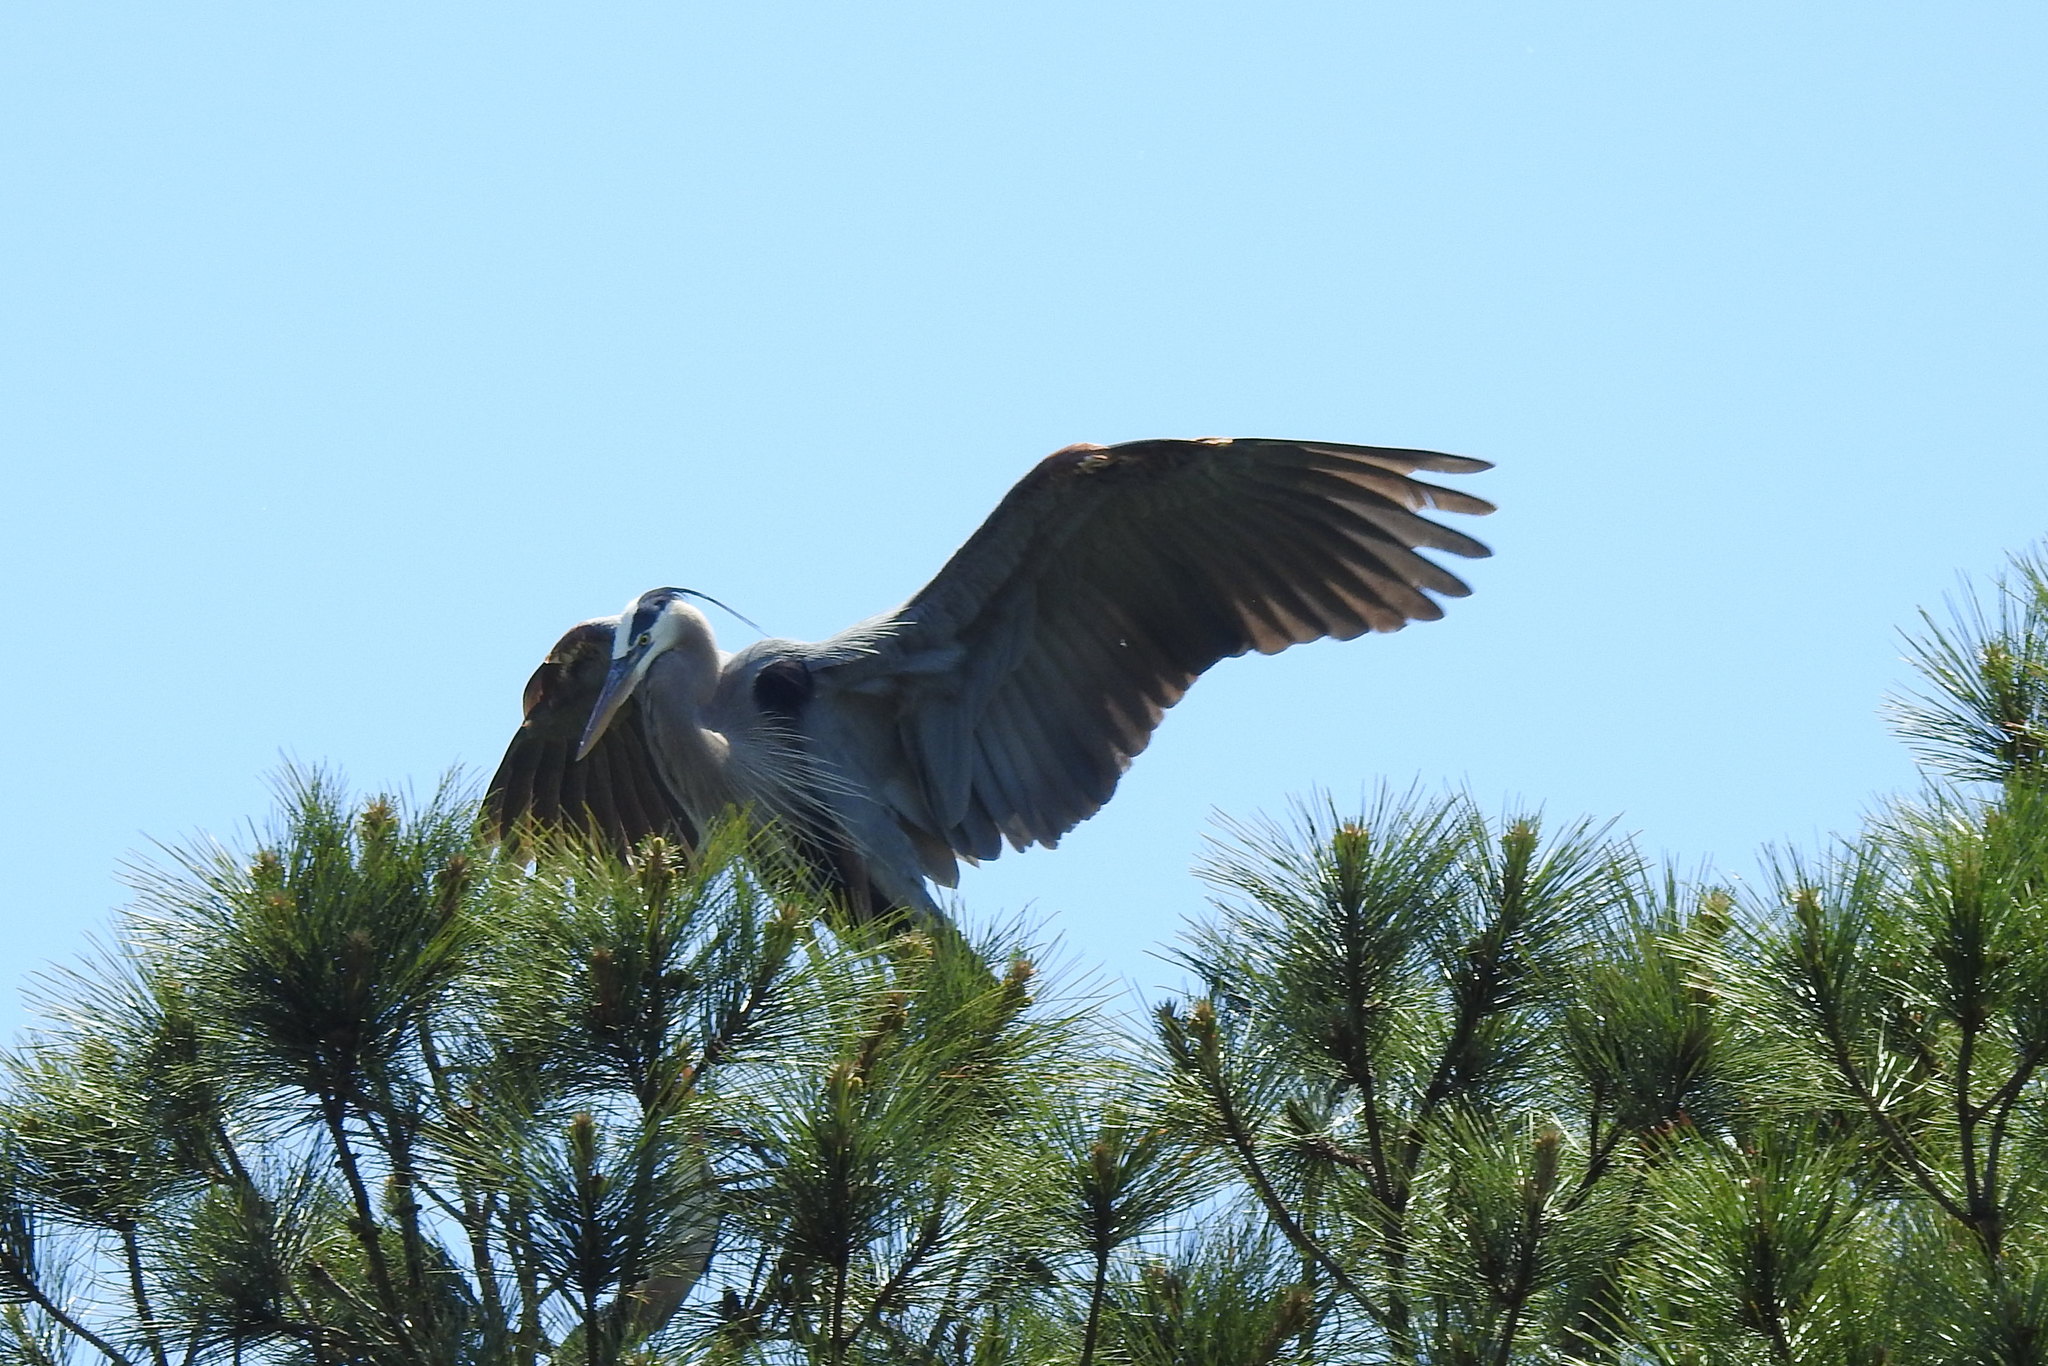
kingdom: Animalia
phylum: Chordata
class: Aves
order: Pelecaniformes
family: Ardeidae
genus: Ardea
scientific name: Ardea herodias
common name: Great blue heron
